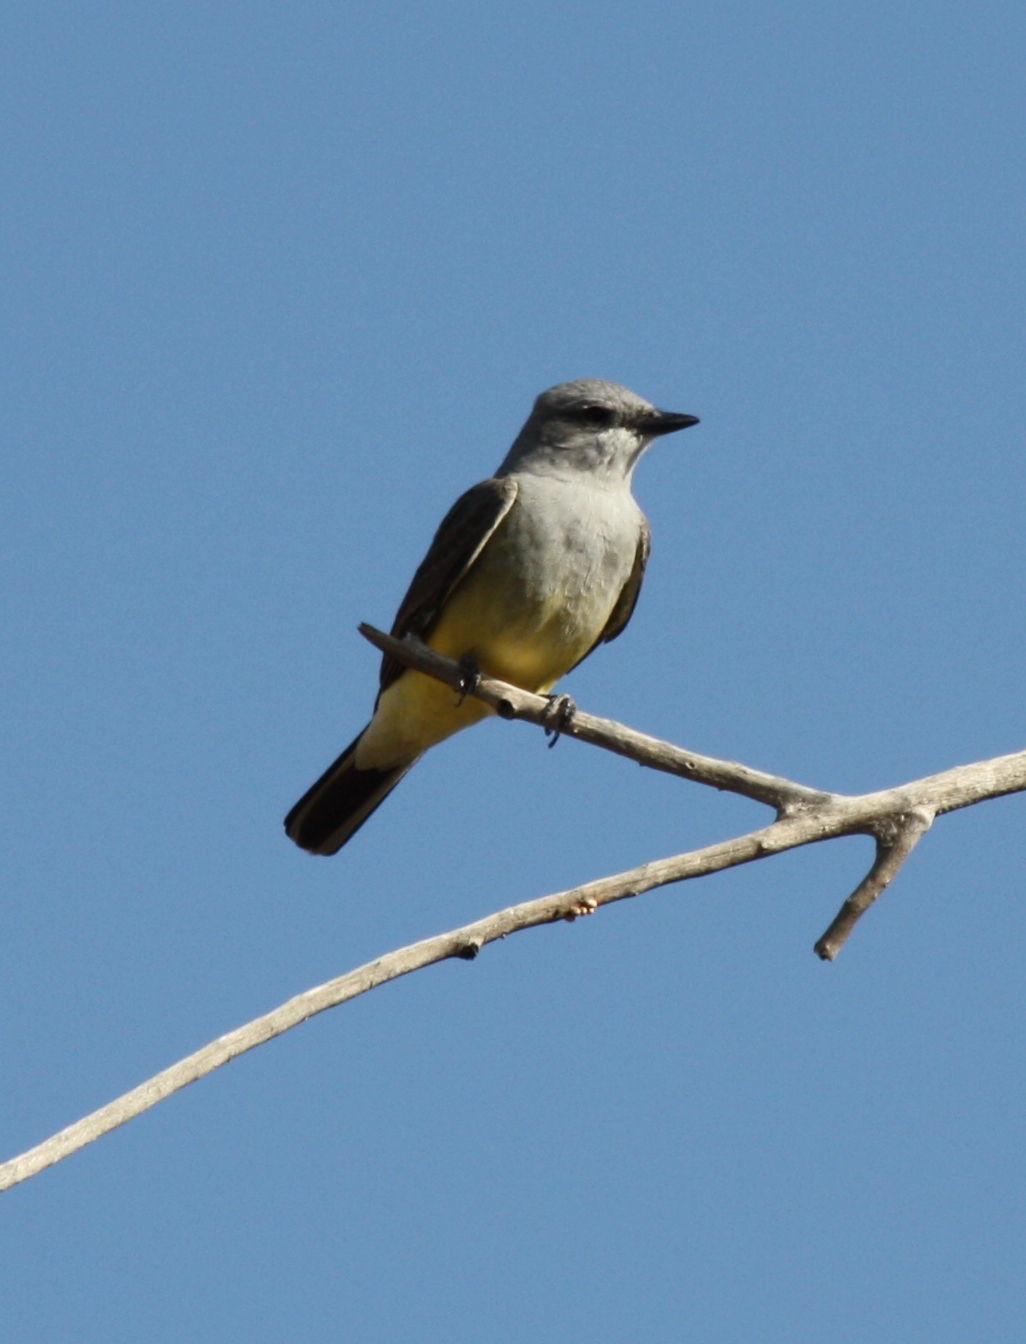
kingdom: Animalia
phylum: Chordata
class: Aves
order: Passeriformes
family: Tyrannidae
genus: Tyrannus
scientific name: Tyrannus verticalis
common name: Western kingbird
